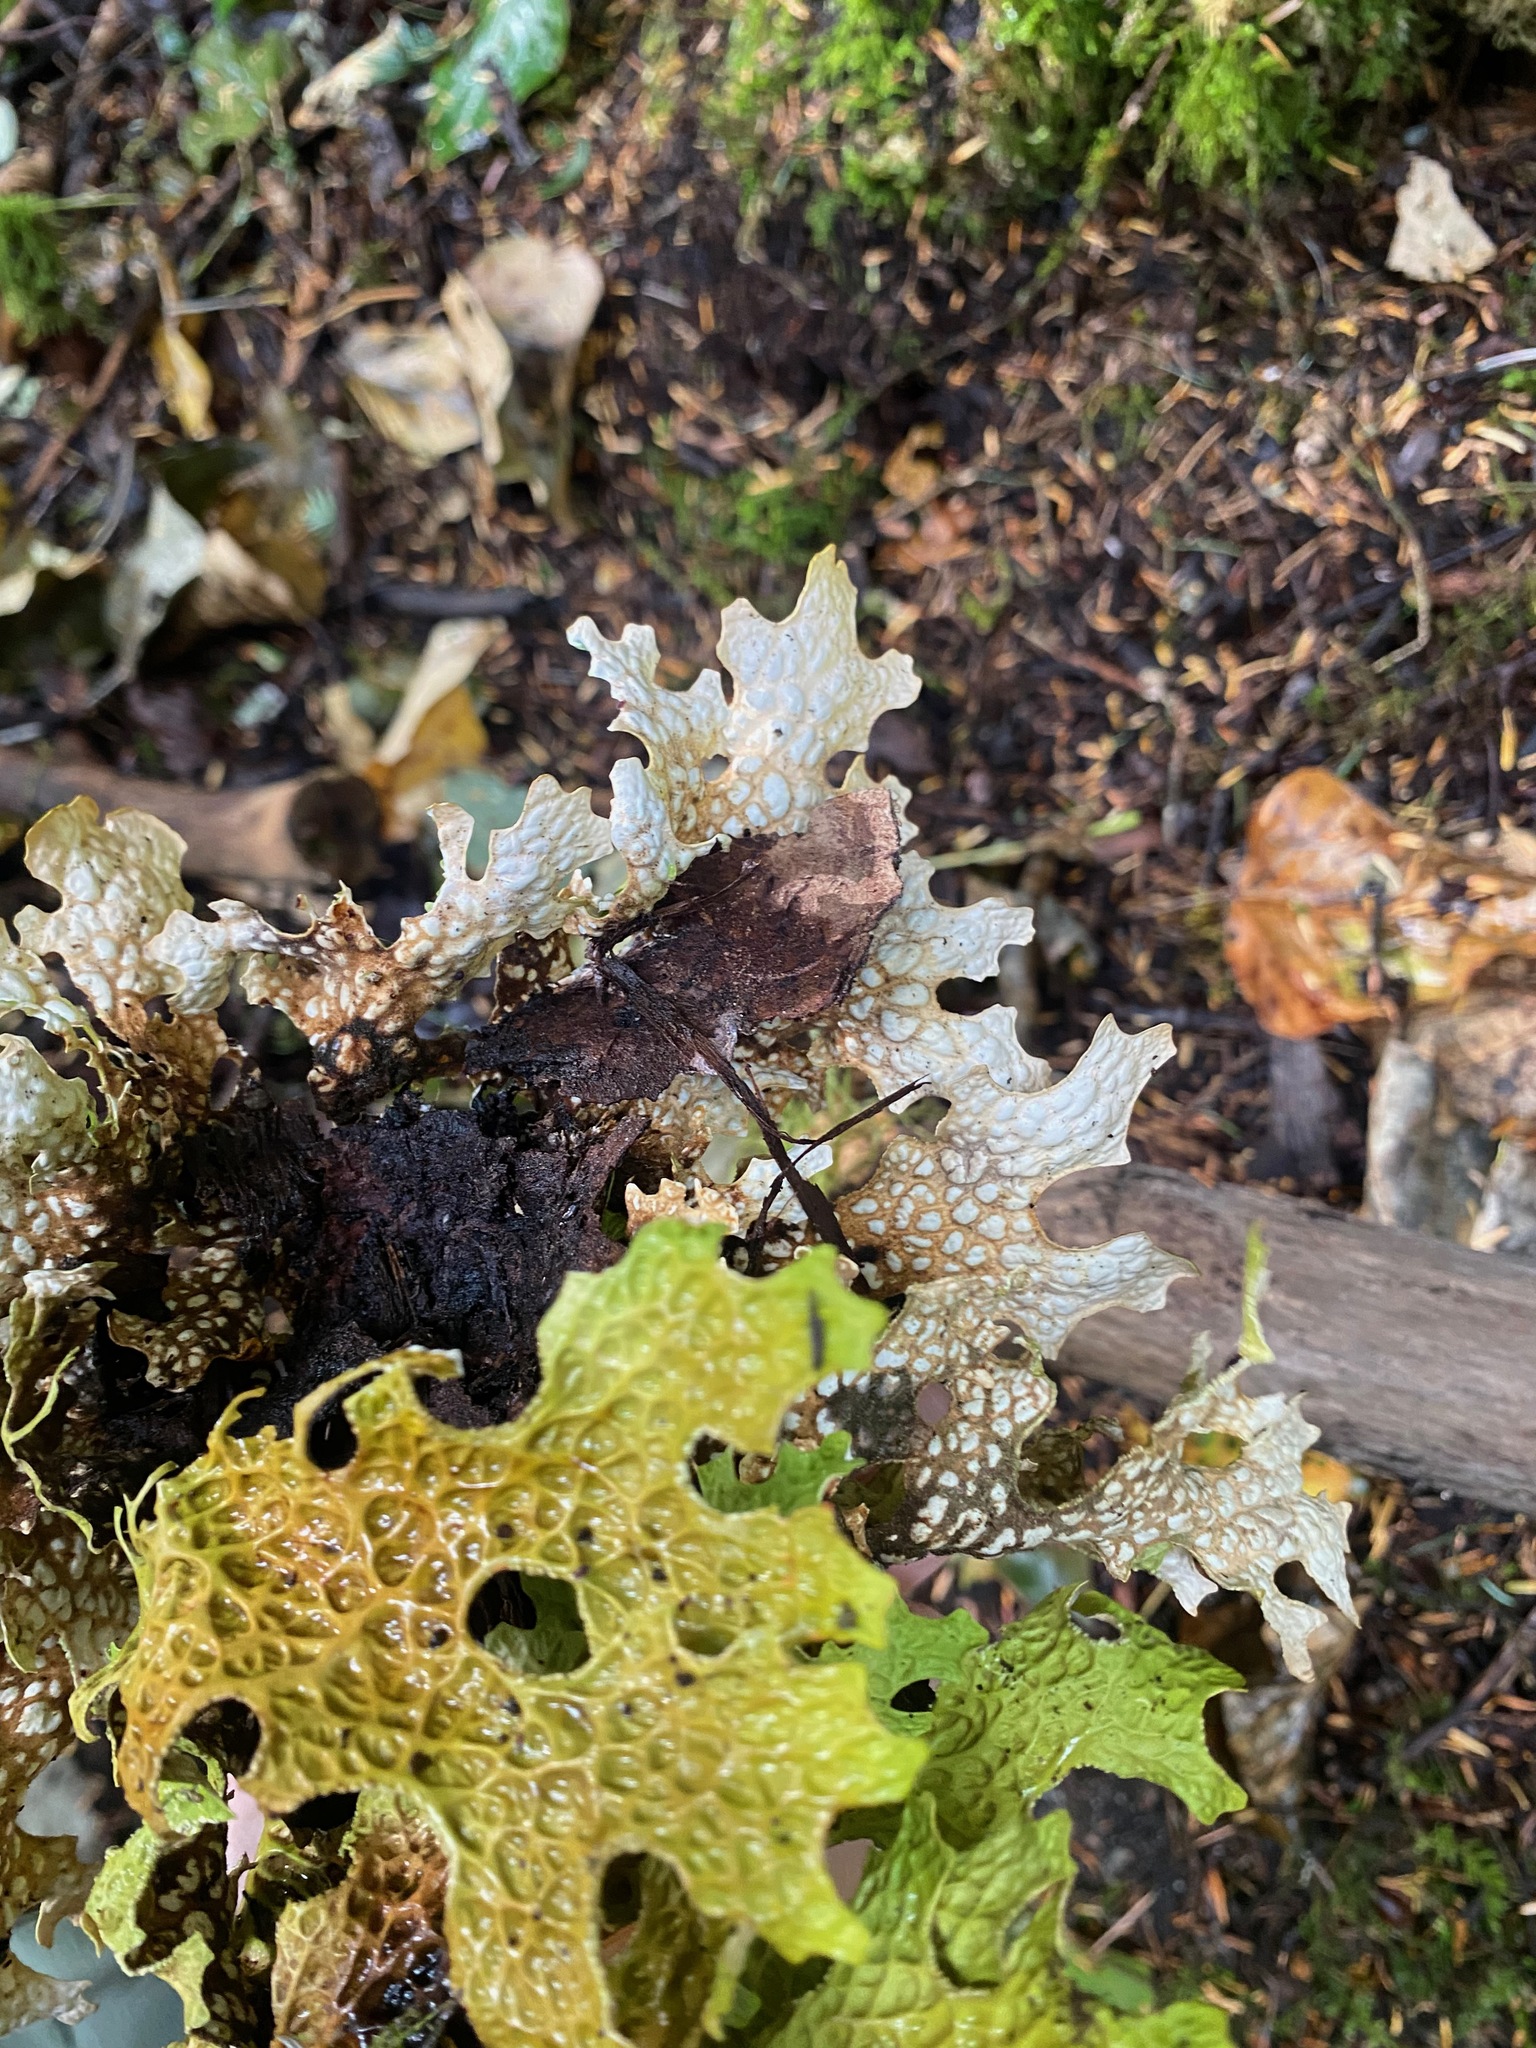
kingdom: Fungi
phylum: Ascomycota
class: Lecanoromycetes
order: Peltigerales
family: Lobariaceae
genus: Lobaria
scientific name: Lobaria pulmonaria
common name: Lungwort
